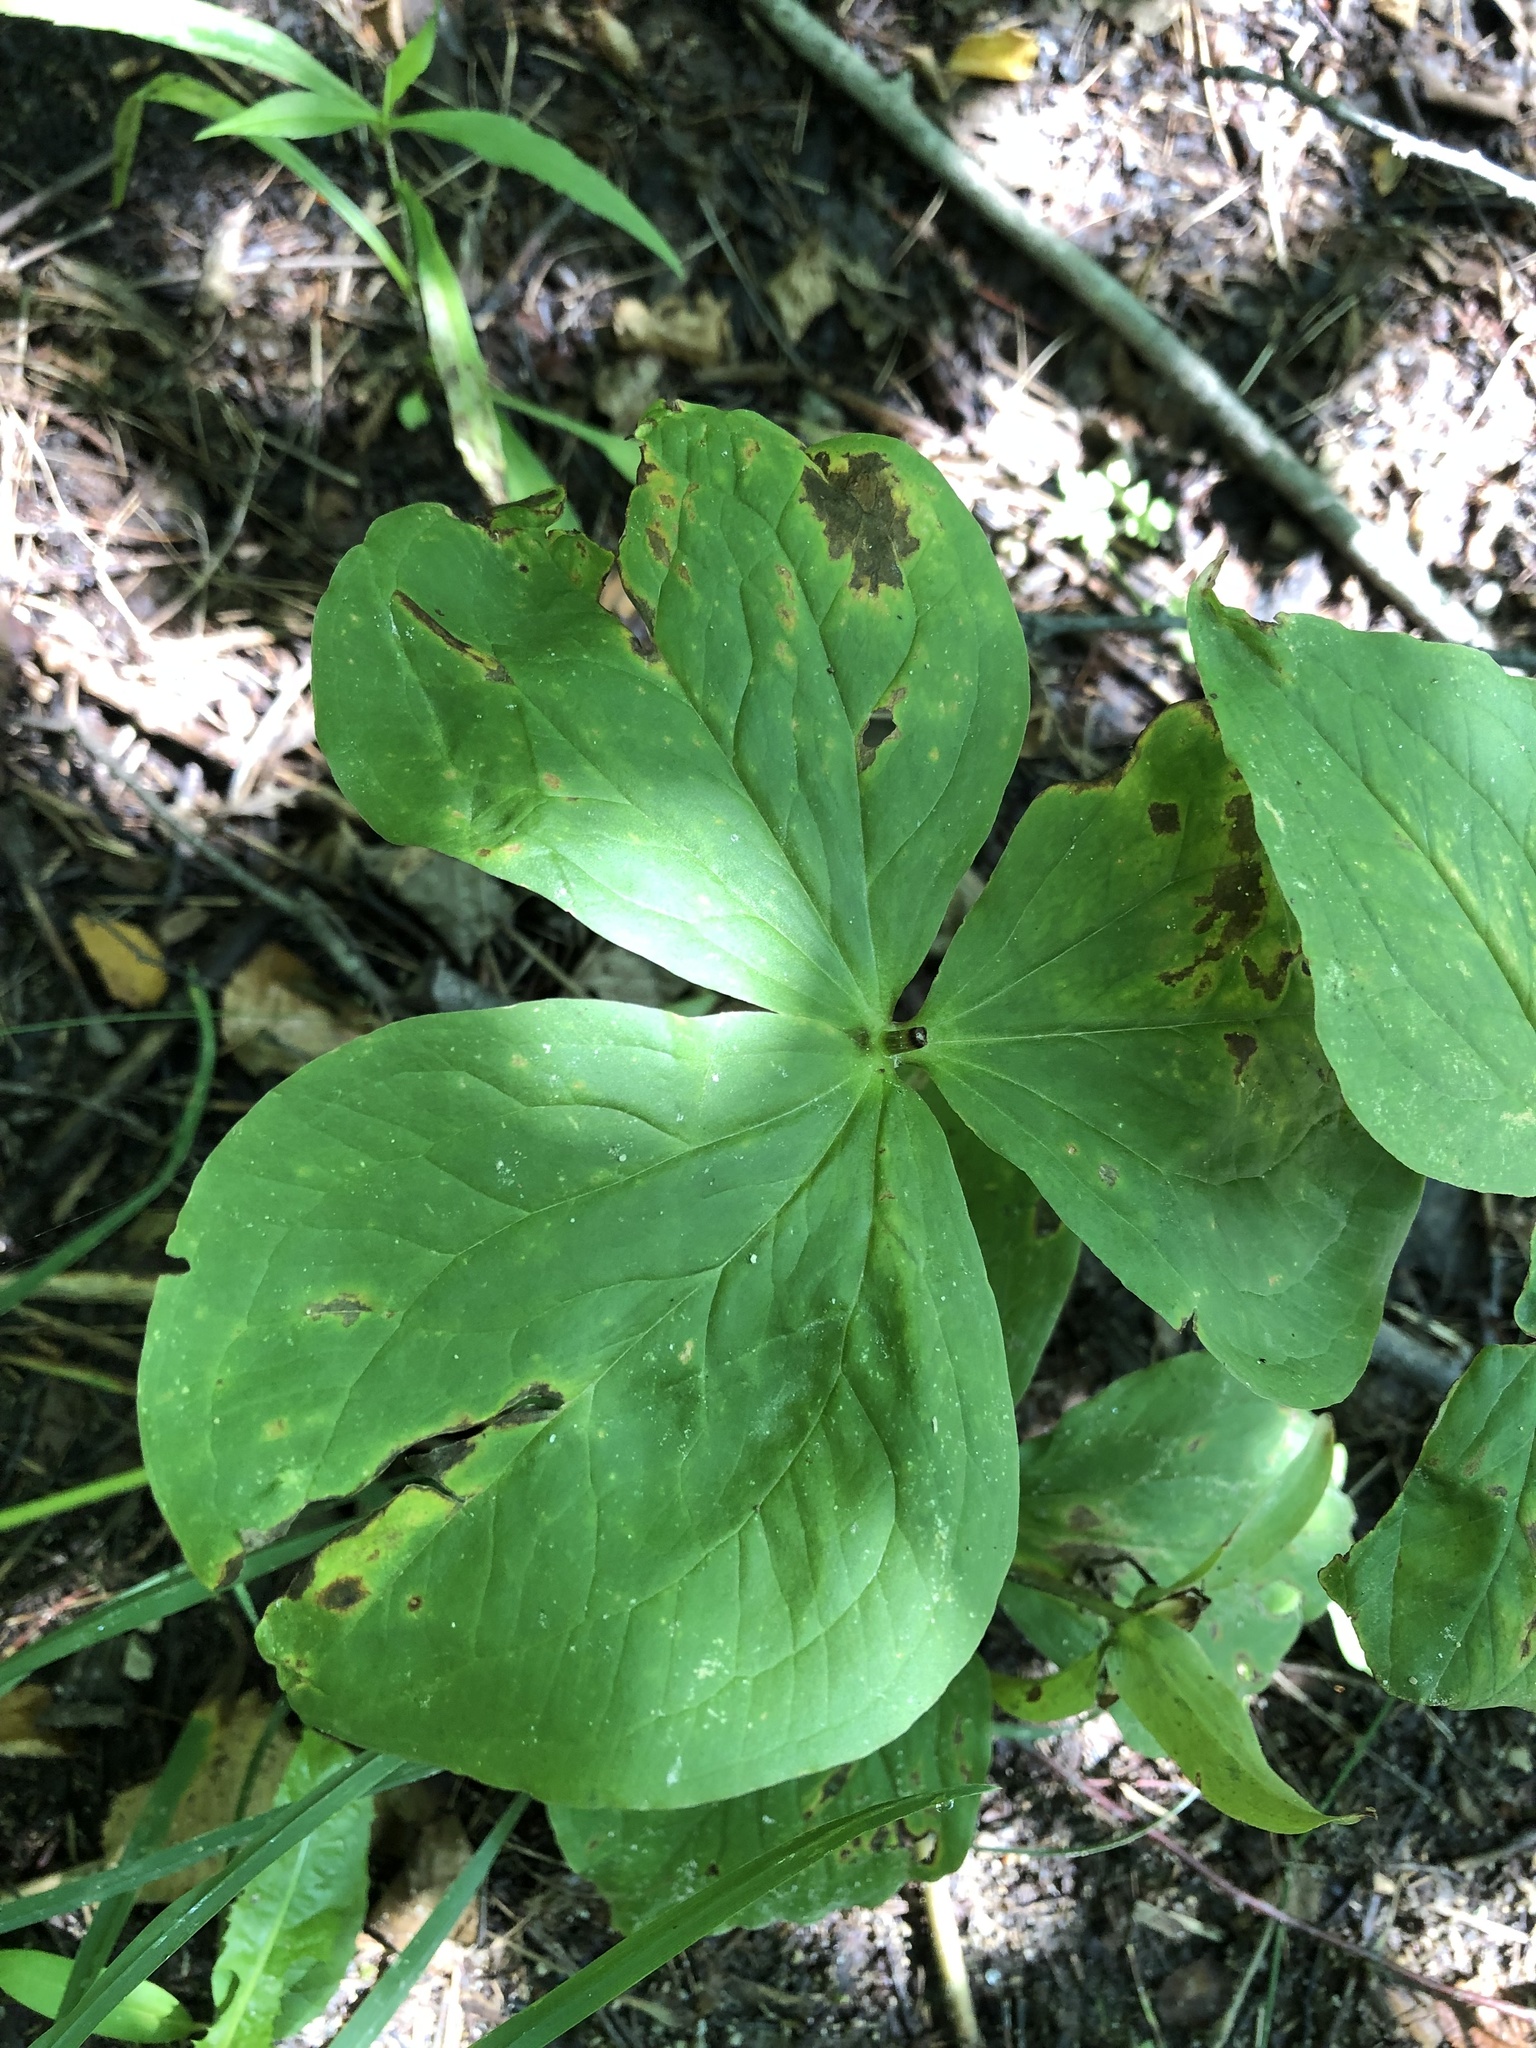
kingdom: Plantae
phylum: Tracheophyta
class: Liliopsida
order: Liliales
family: Melanthiaceae
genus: Trillium
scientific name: Trillium erectum
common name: Purple trillium
